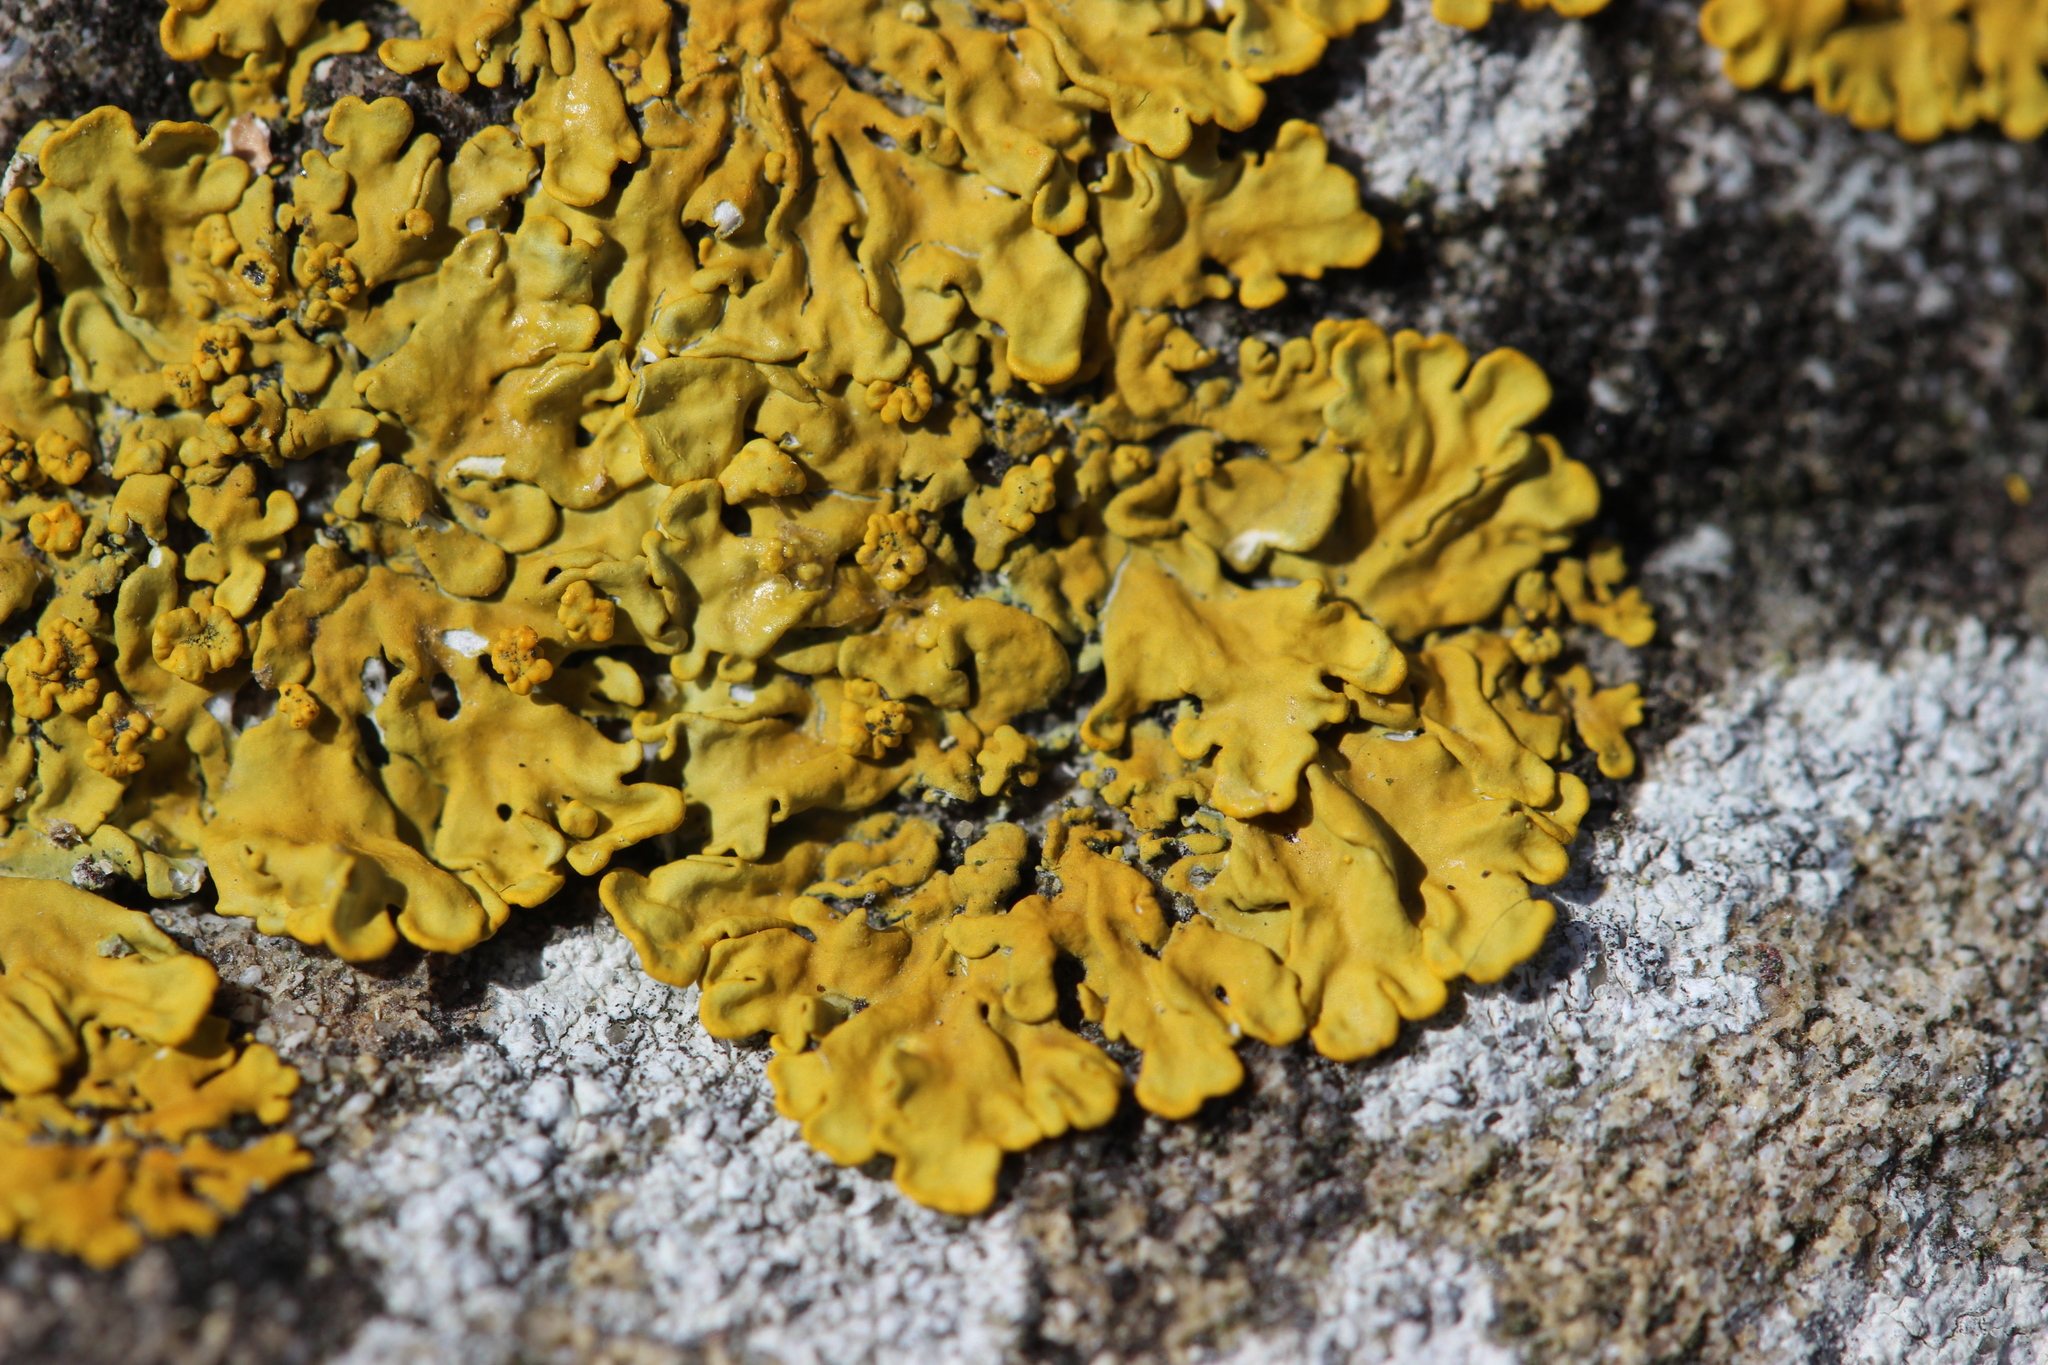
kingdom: Fungi
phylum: Ascomycota
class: Lecanoromycetes
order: Teloschistales
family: Teloschistaceae
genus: Xanthoria
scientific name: Xanthoria parietina
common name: Common orange lichen
